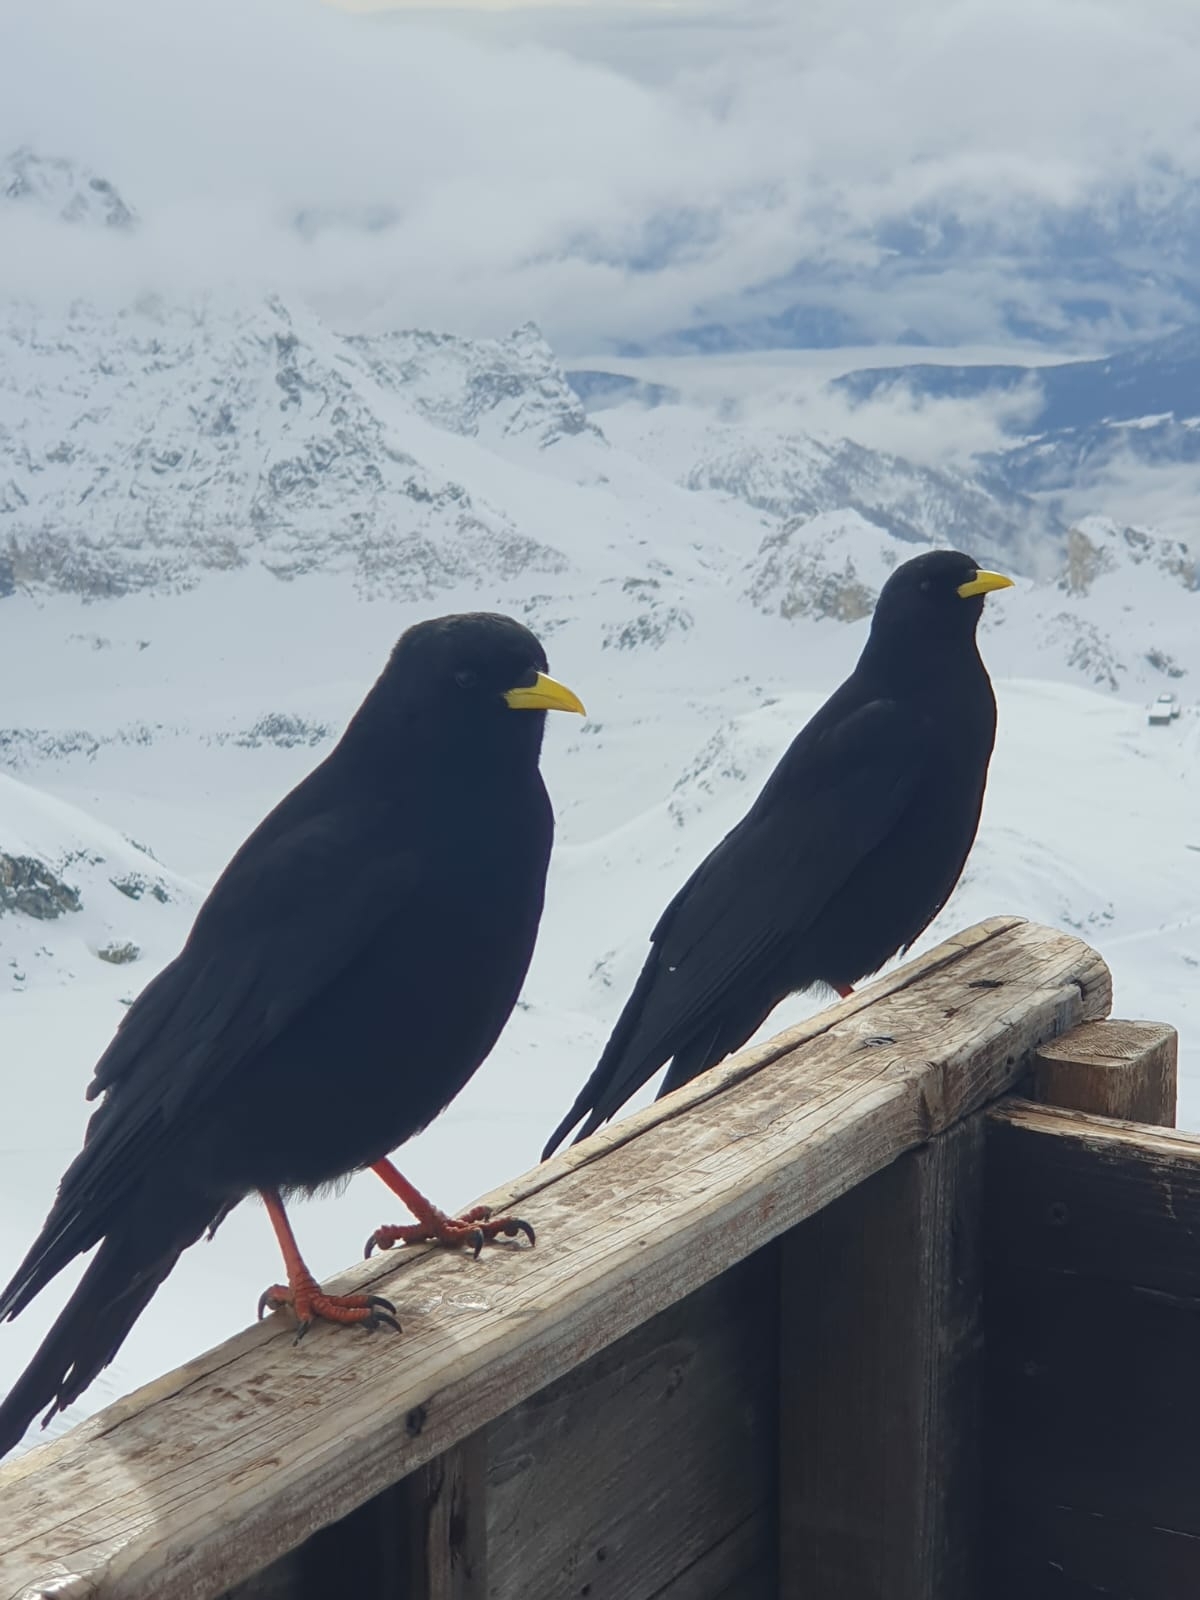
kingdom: Animalia
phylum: Chordata
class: Aves
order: Passeriformes
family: Corvidae
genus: Pyrrhocorax
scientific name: Pyrrhocorax graculus
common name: Alpine chough
